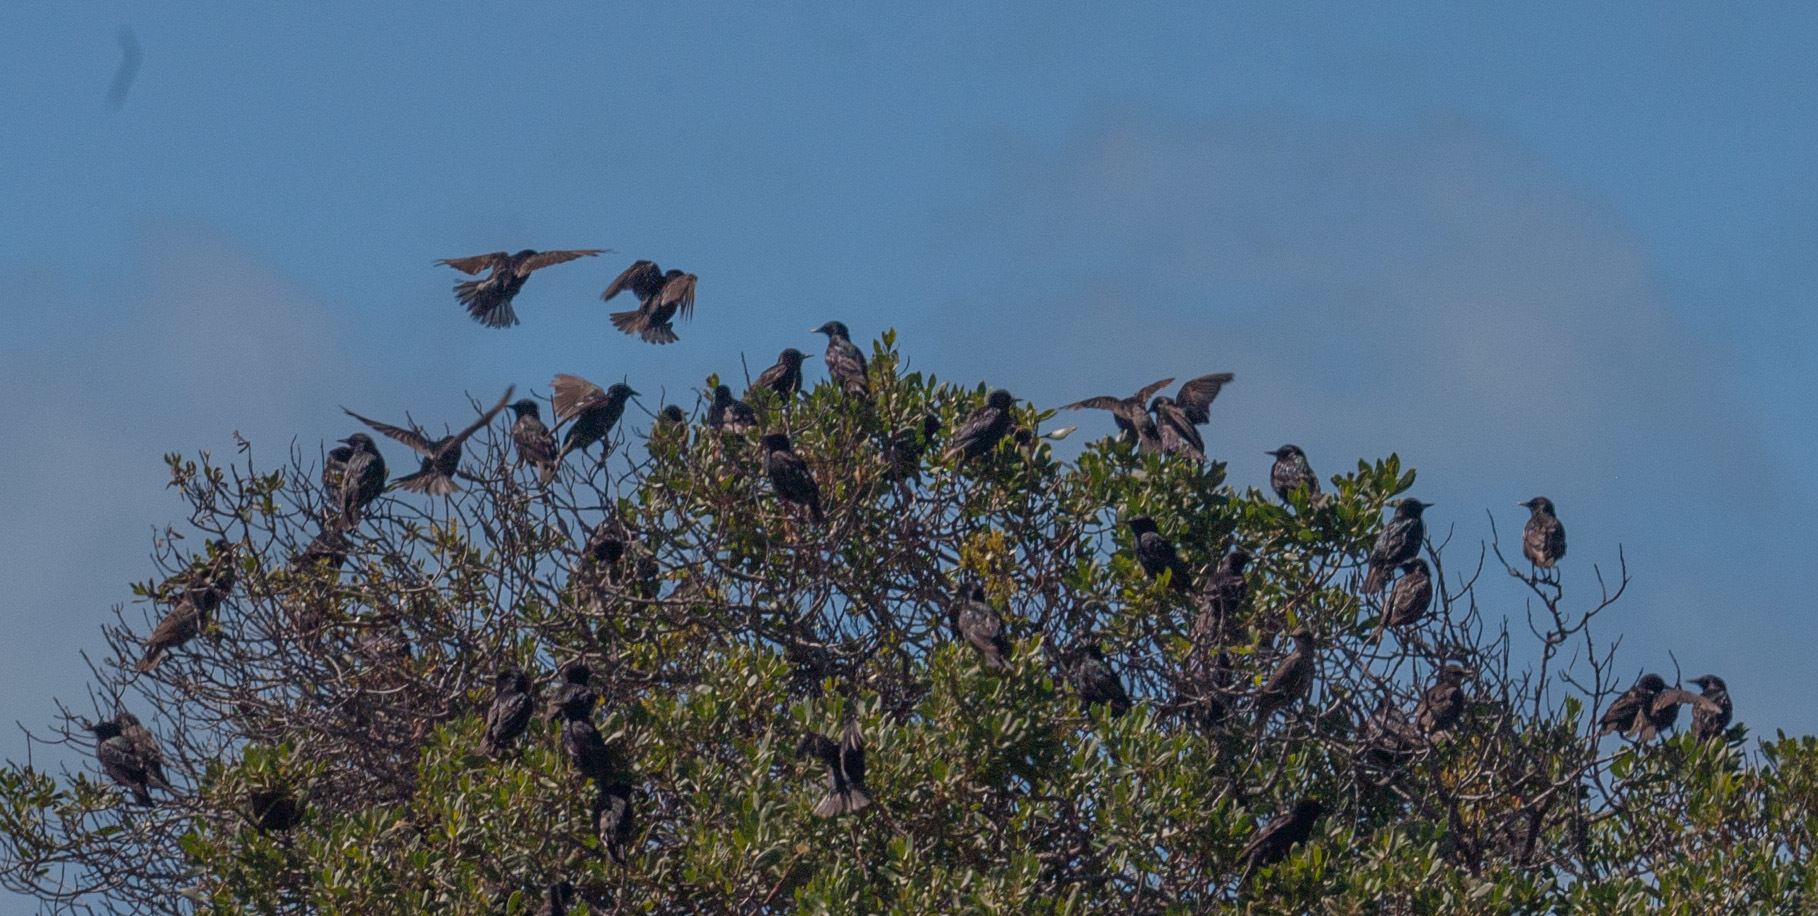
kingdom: Animalia
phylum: Chordata
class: Aves
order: Passeriformes
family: Sturnidae
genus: Sturnus
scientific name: Sturnus vulgaris
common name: Common starling
